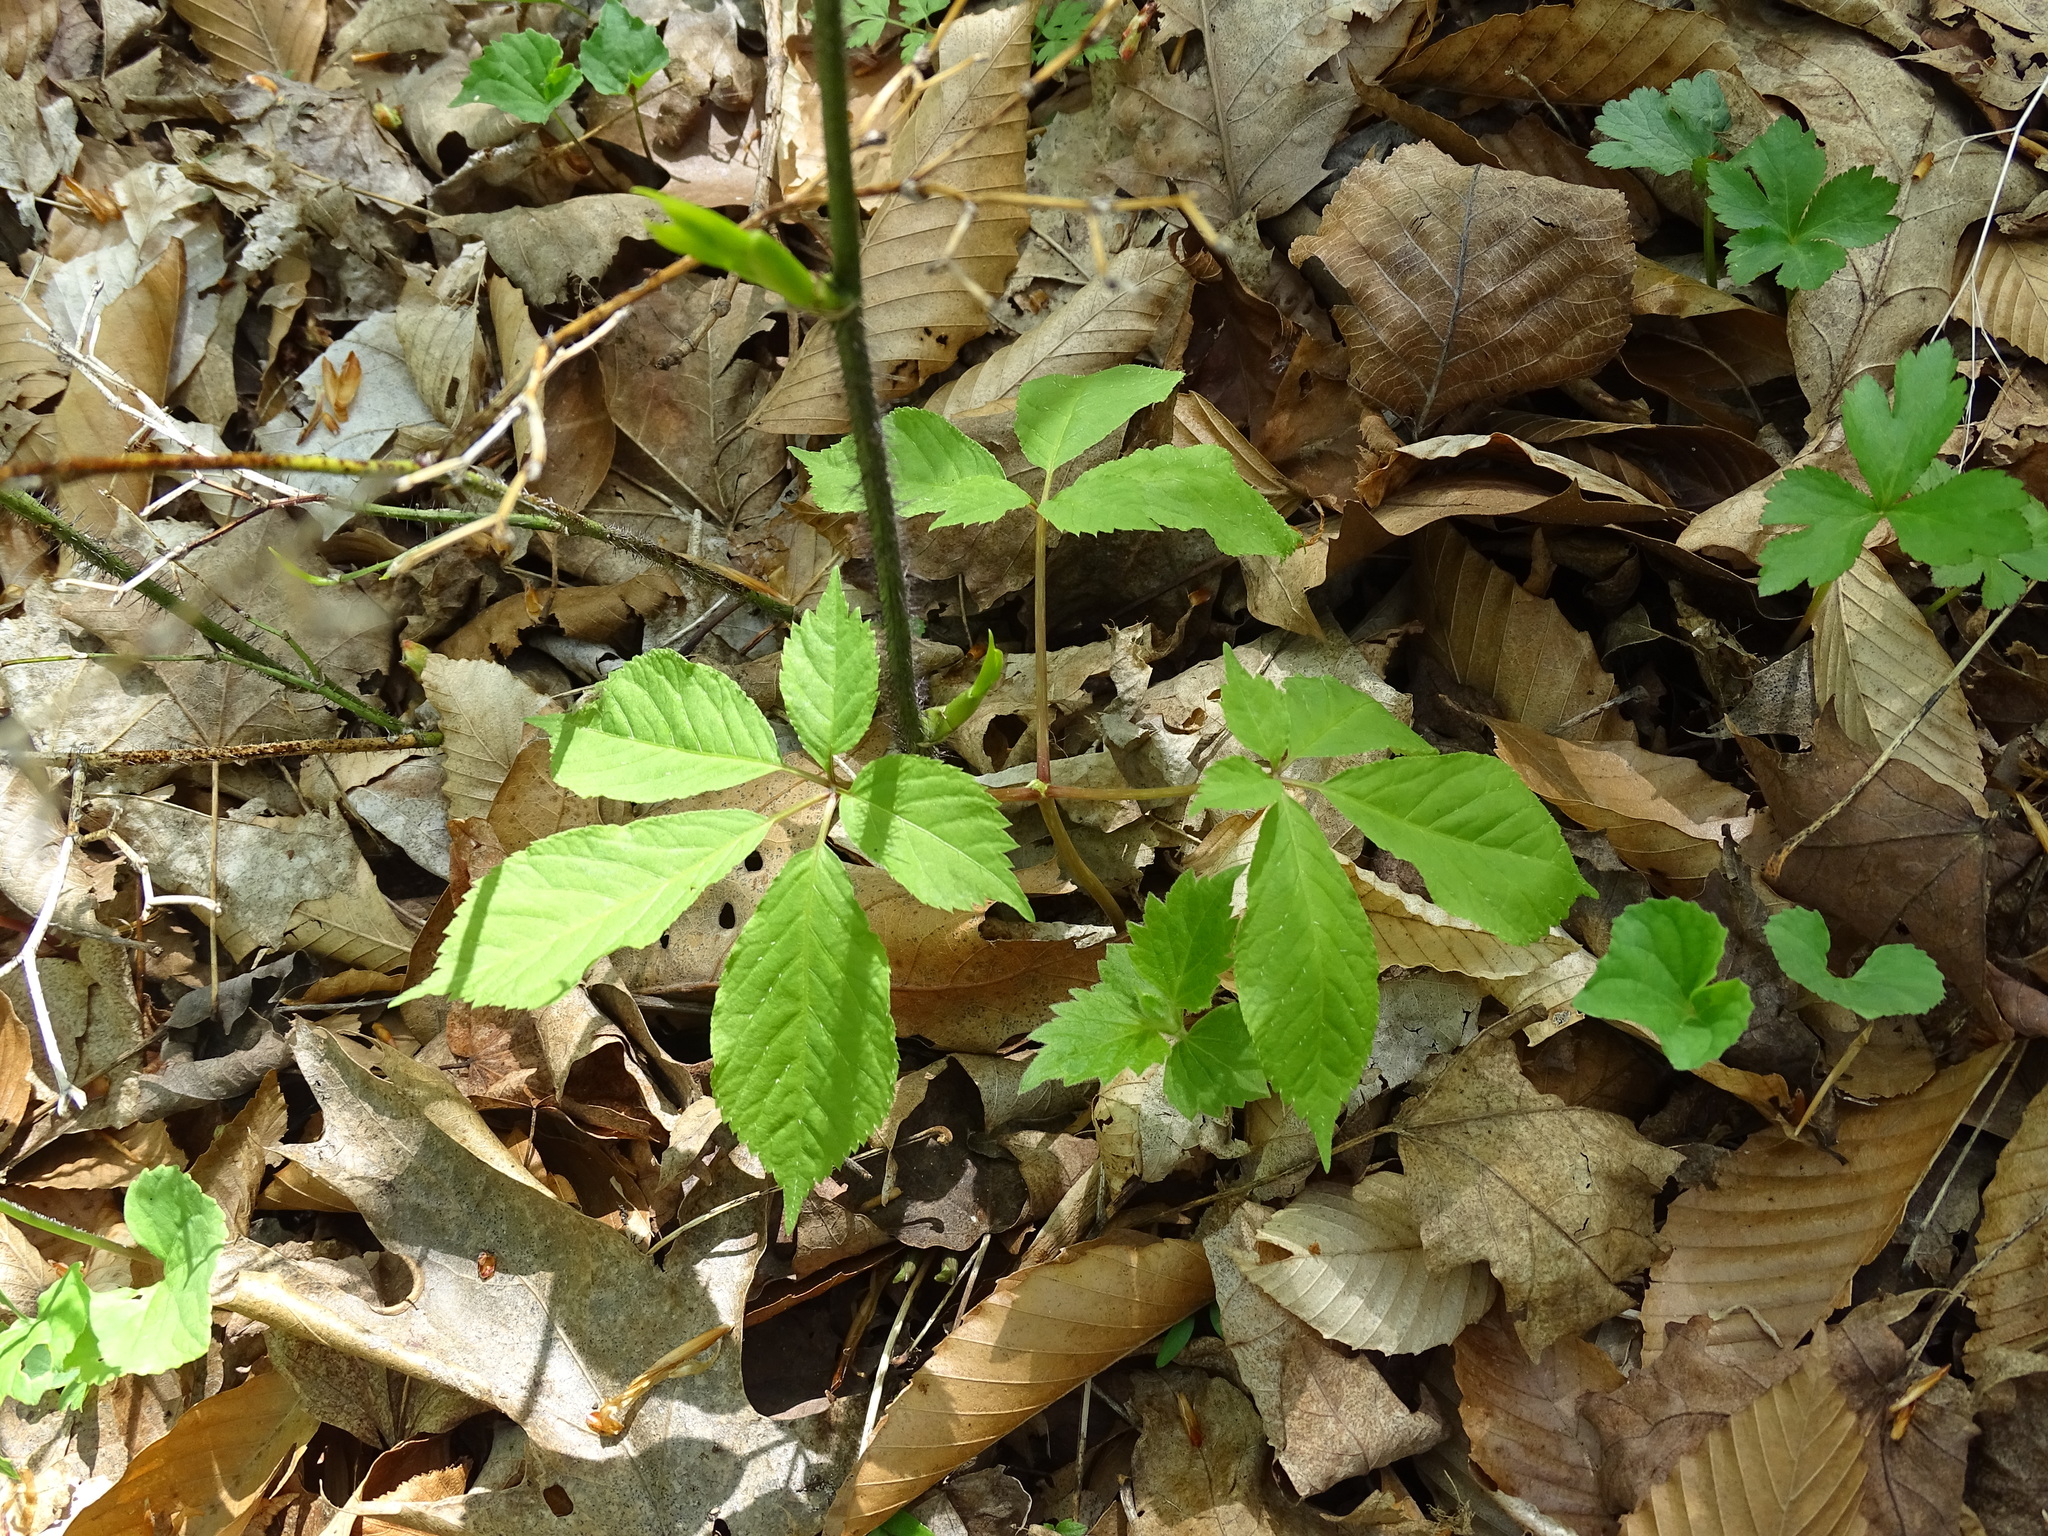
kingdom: Plantae
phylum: Tracheophyta
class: Magnoliopsida
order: Apiales
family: Araliaceae
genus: Panax
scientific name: Panax quinquefolius
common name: American ginseng
